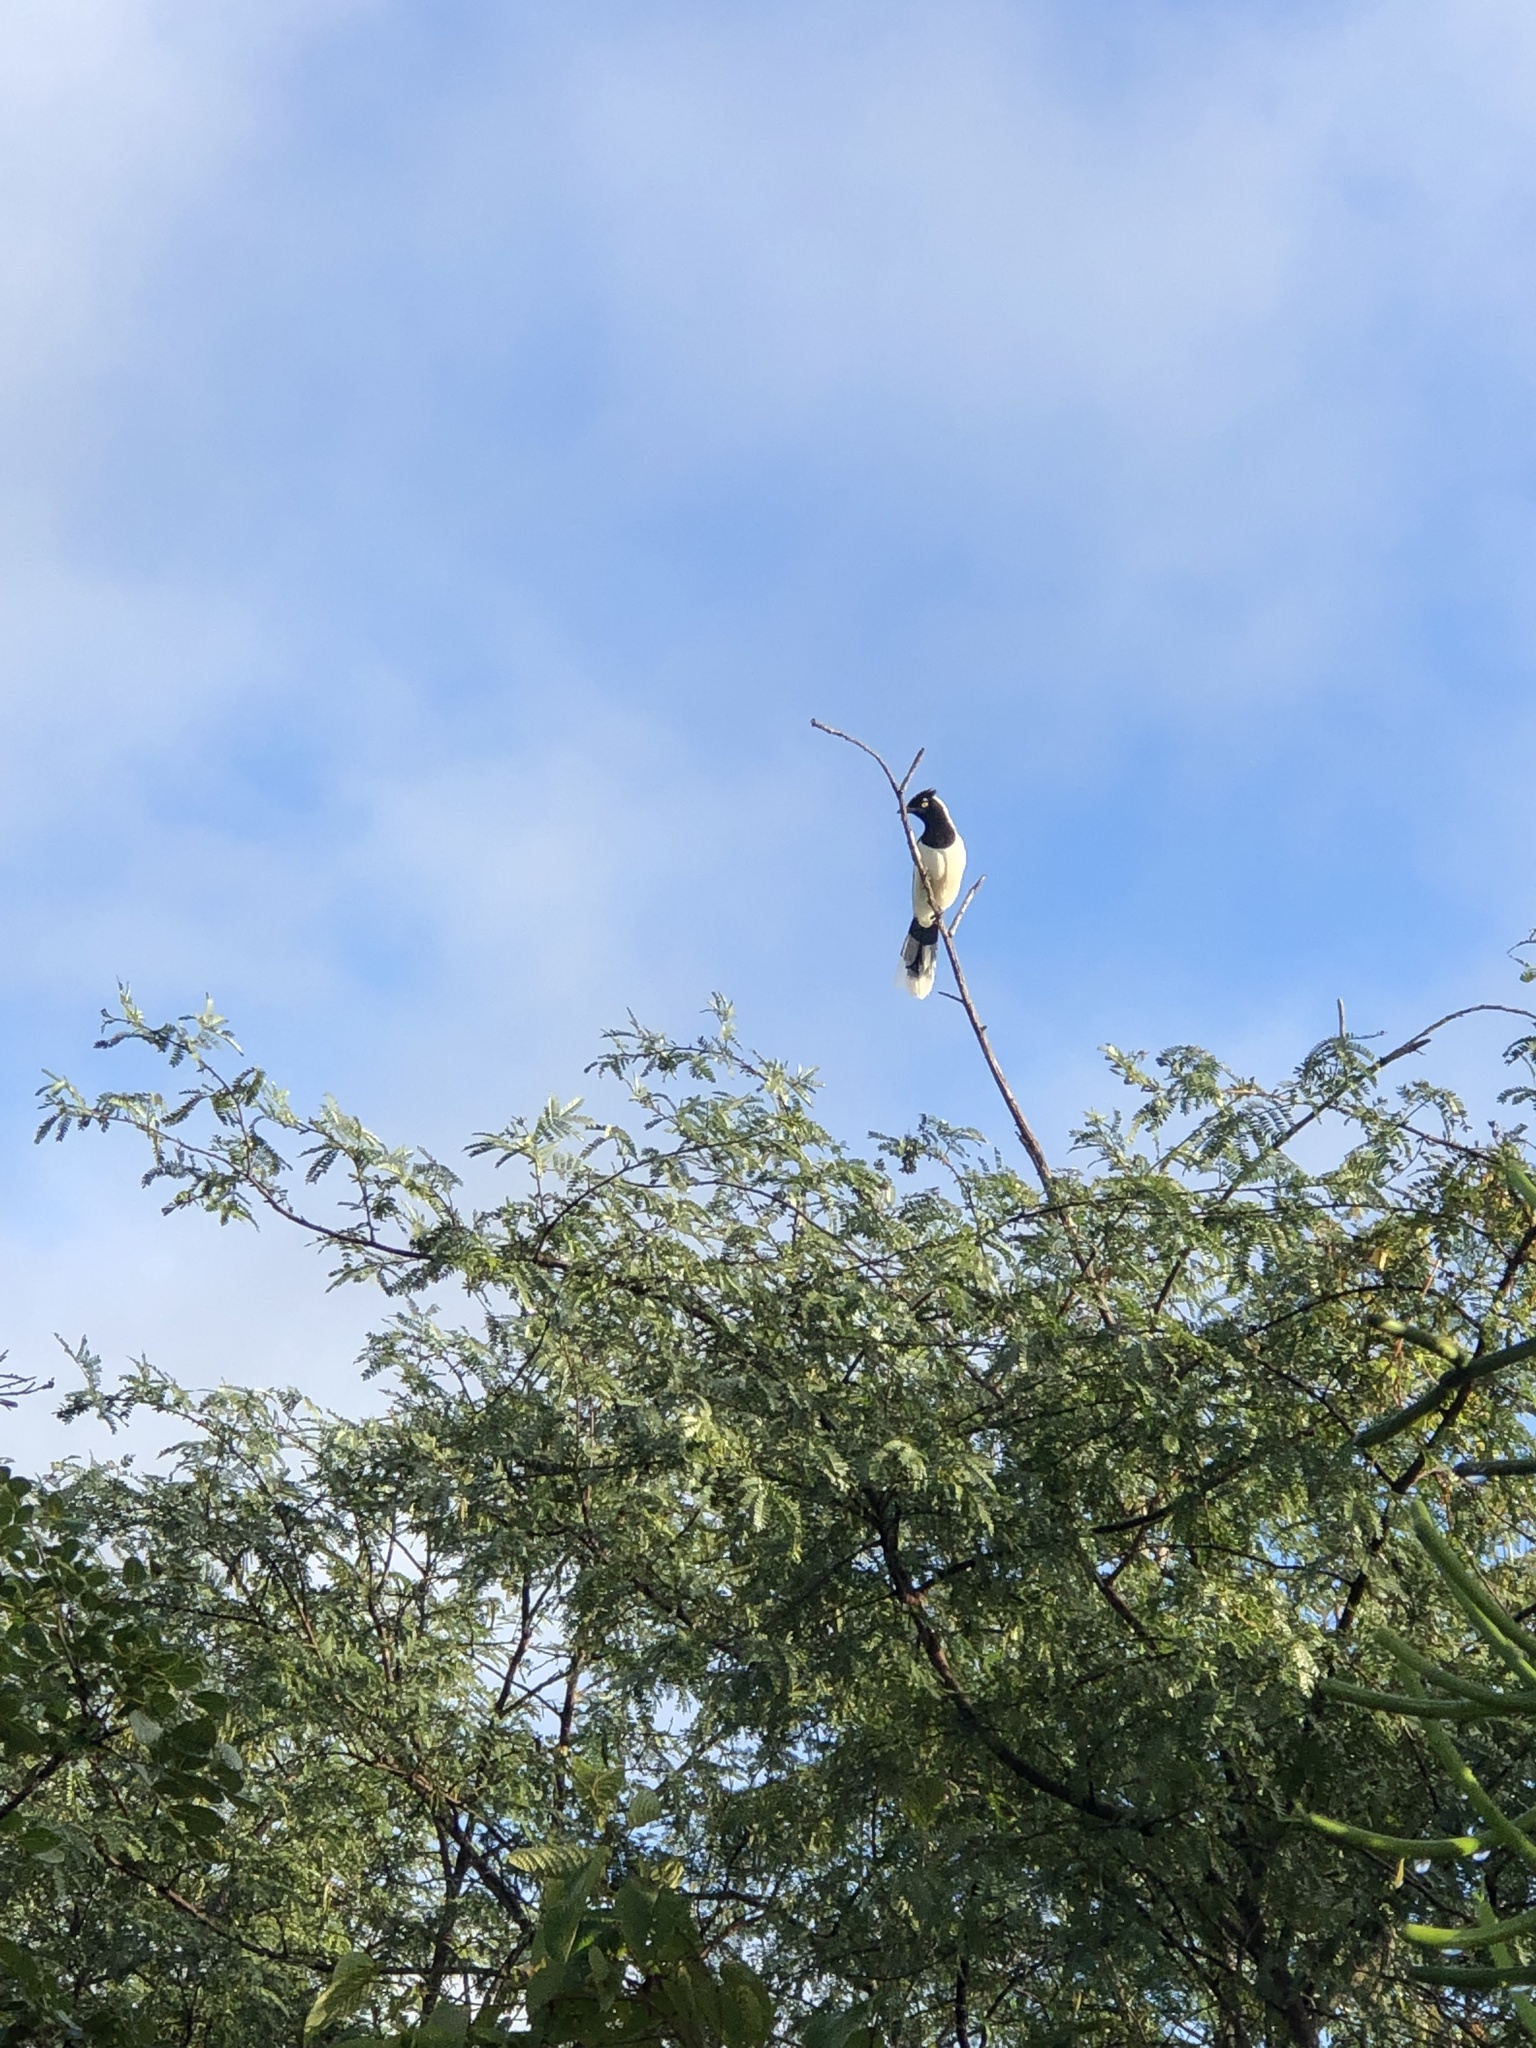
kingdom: Animalia
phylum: Chordata
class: Aves
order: Passeriformes
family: Corvidae
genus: Cyanocorax
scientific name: Cyanocorax cyanopogon
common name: White-naped jay
